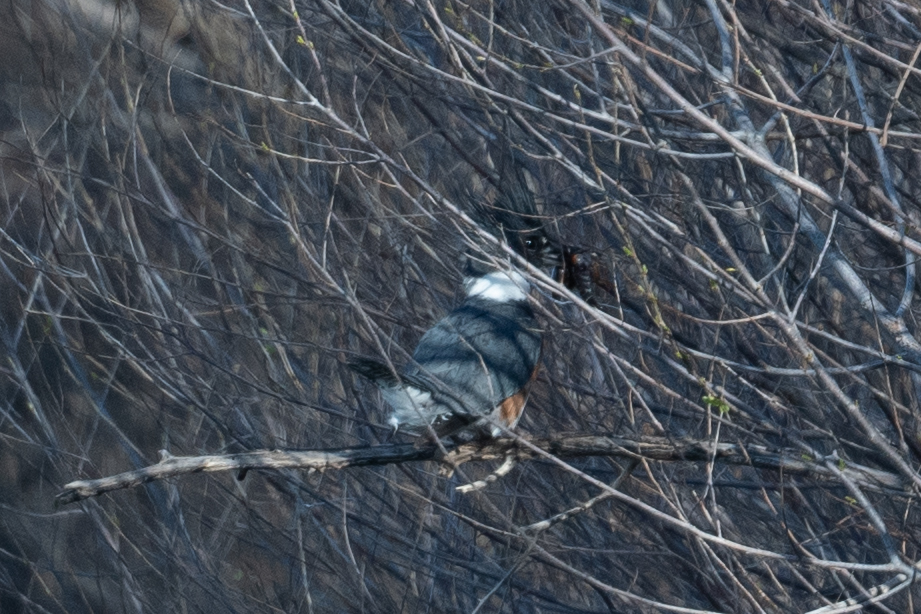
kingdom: Animalia
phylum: Chordata
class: Aves
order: Coraciiformes
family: Alcedinidae
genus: Megaceryle
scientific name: Megaceryle alcyon
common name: Belted kingfisher
